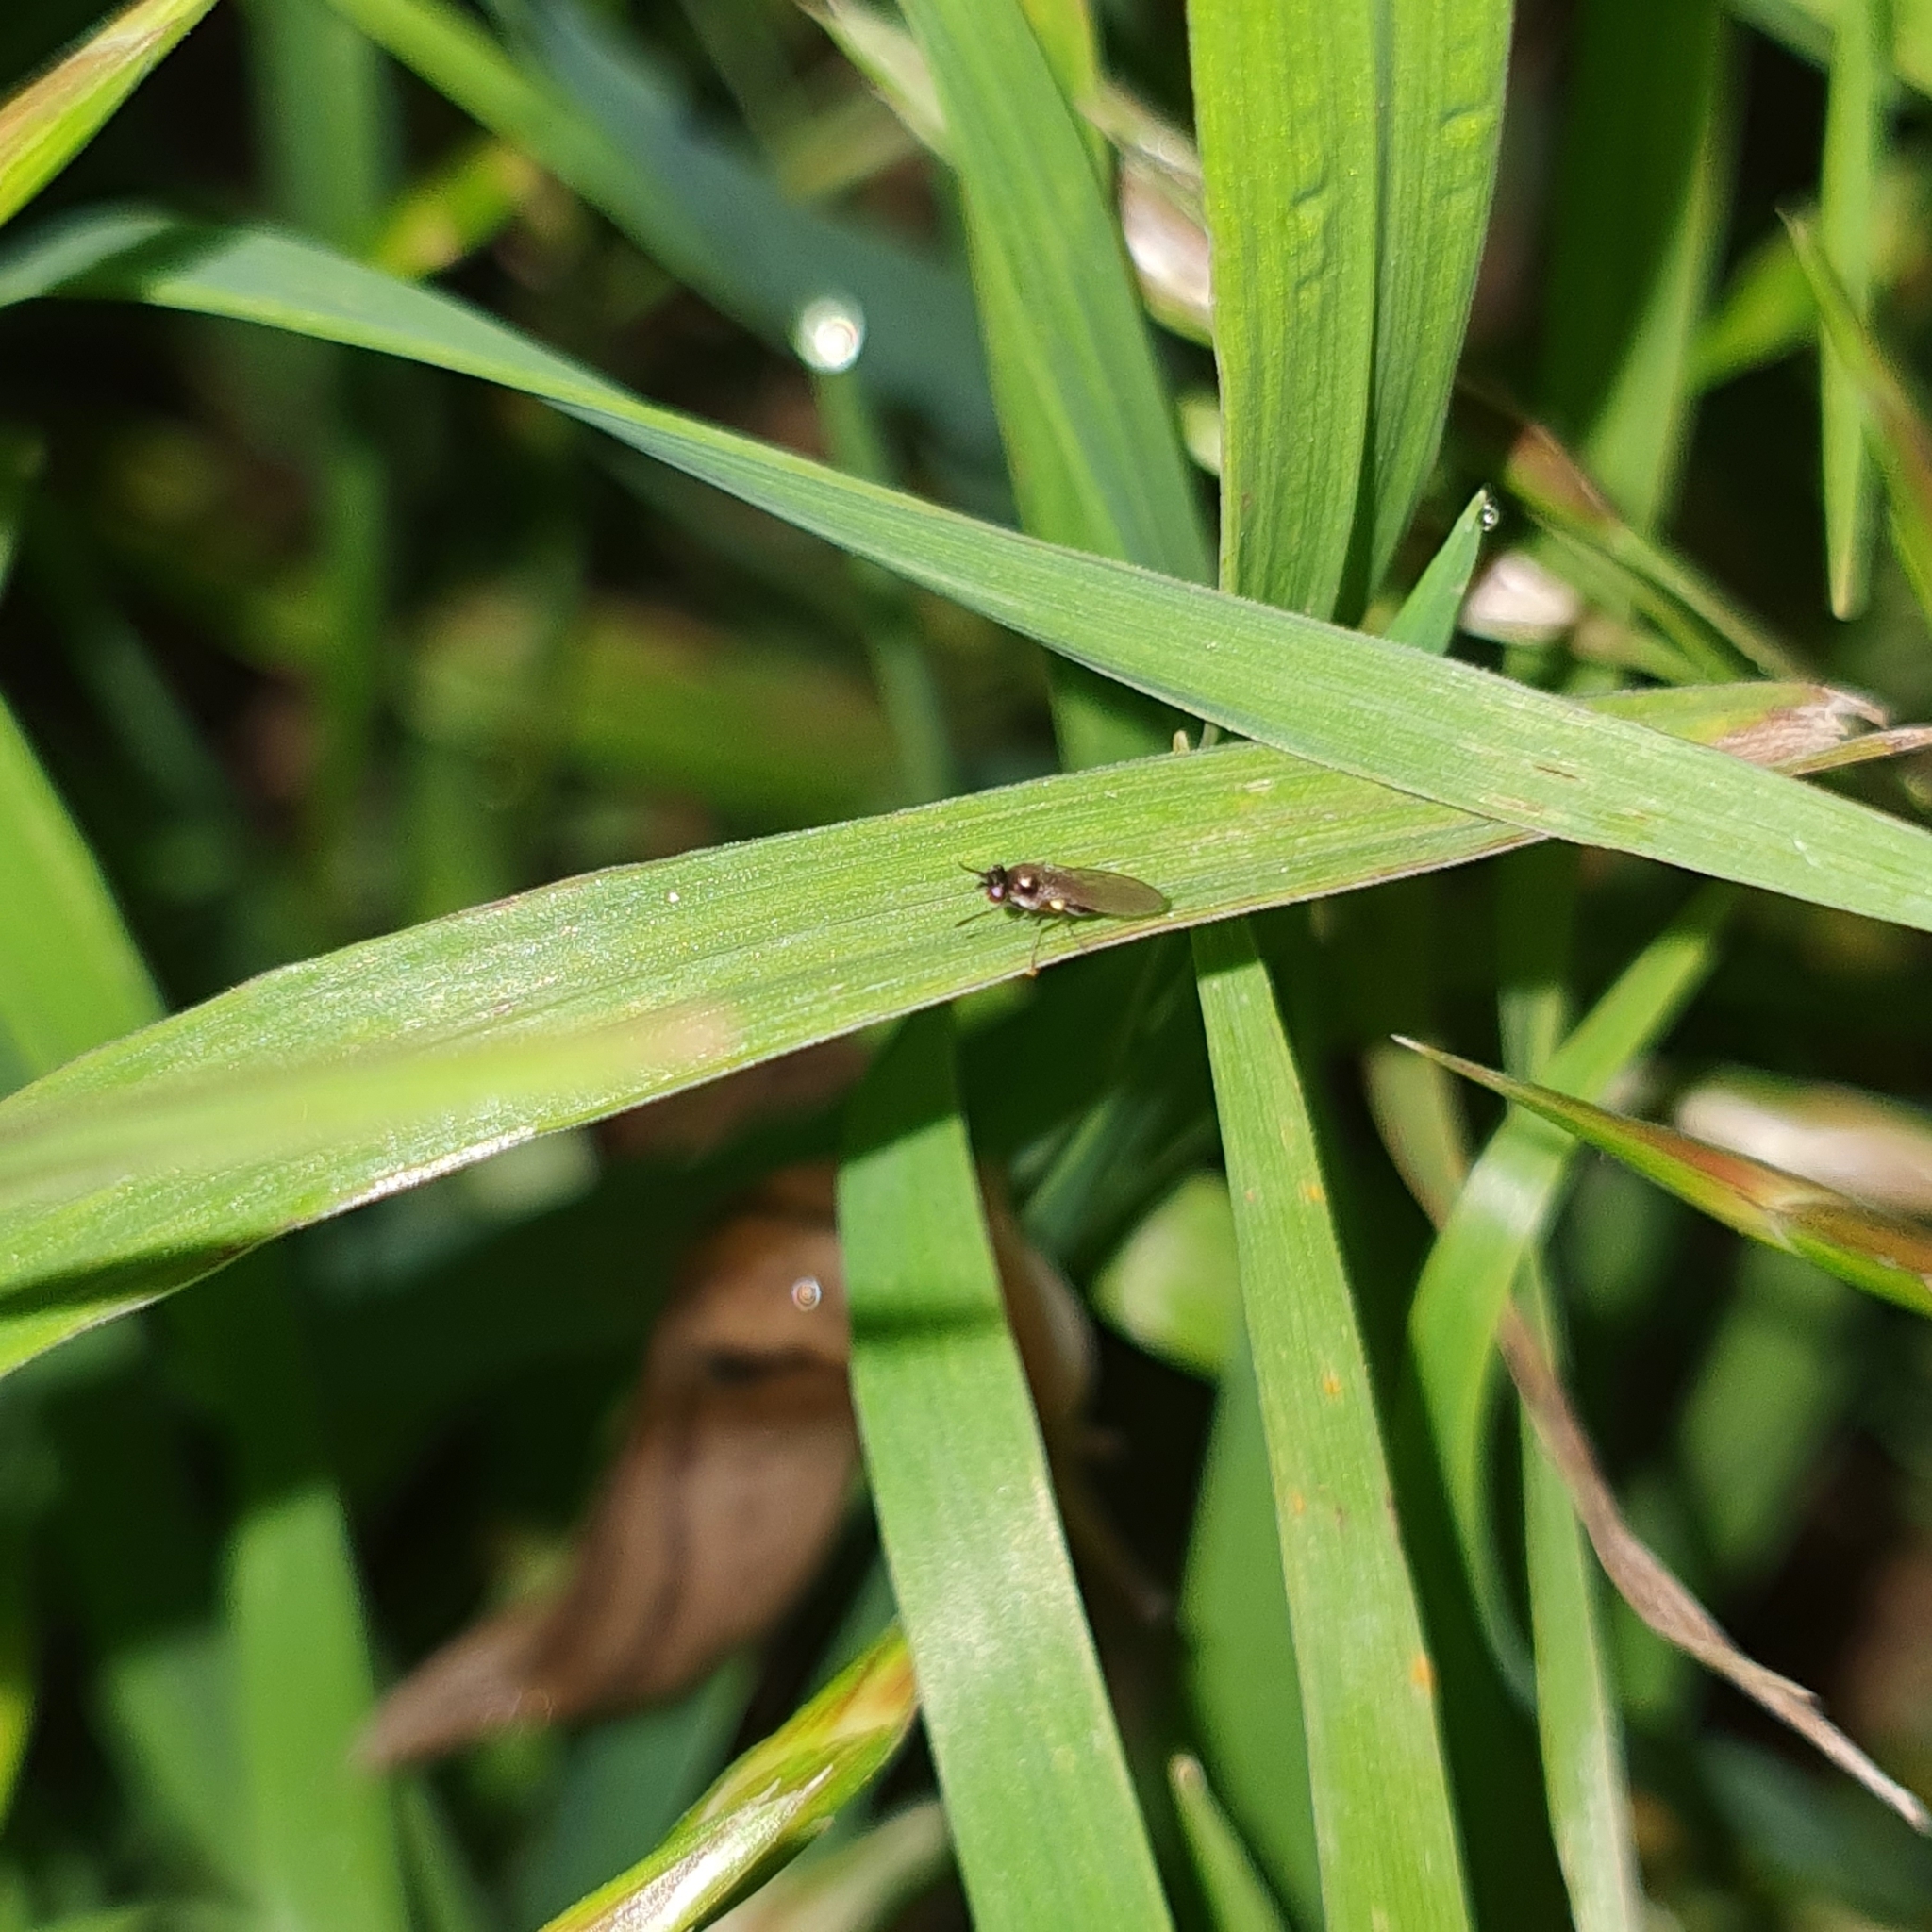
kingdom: Animalia
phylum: Arthropoda
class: Insecta
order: Diptera
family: Ephydridae
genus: Hydrellia
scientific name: Hydrellia tritici
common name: Shore fly
